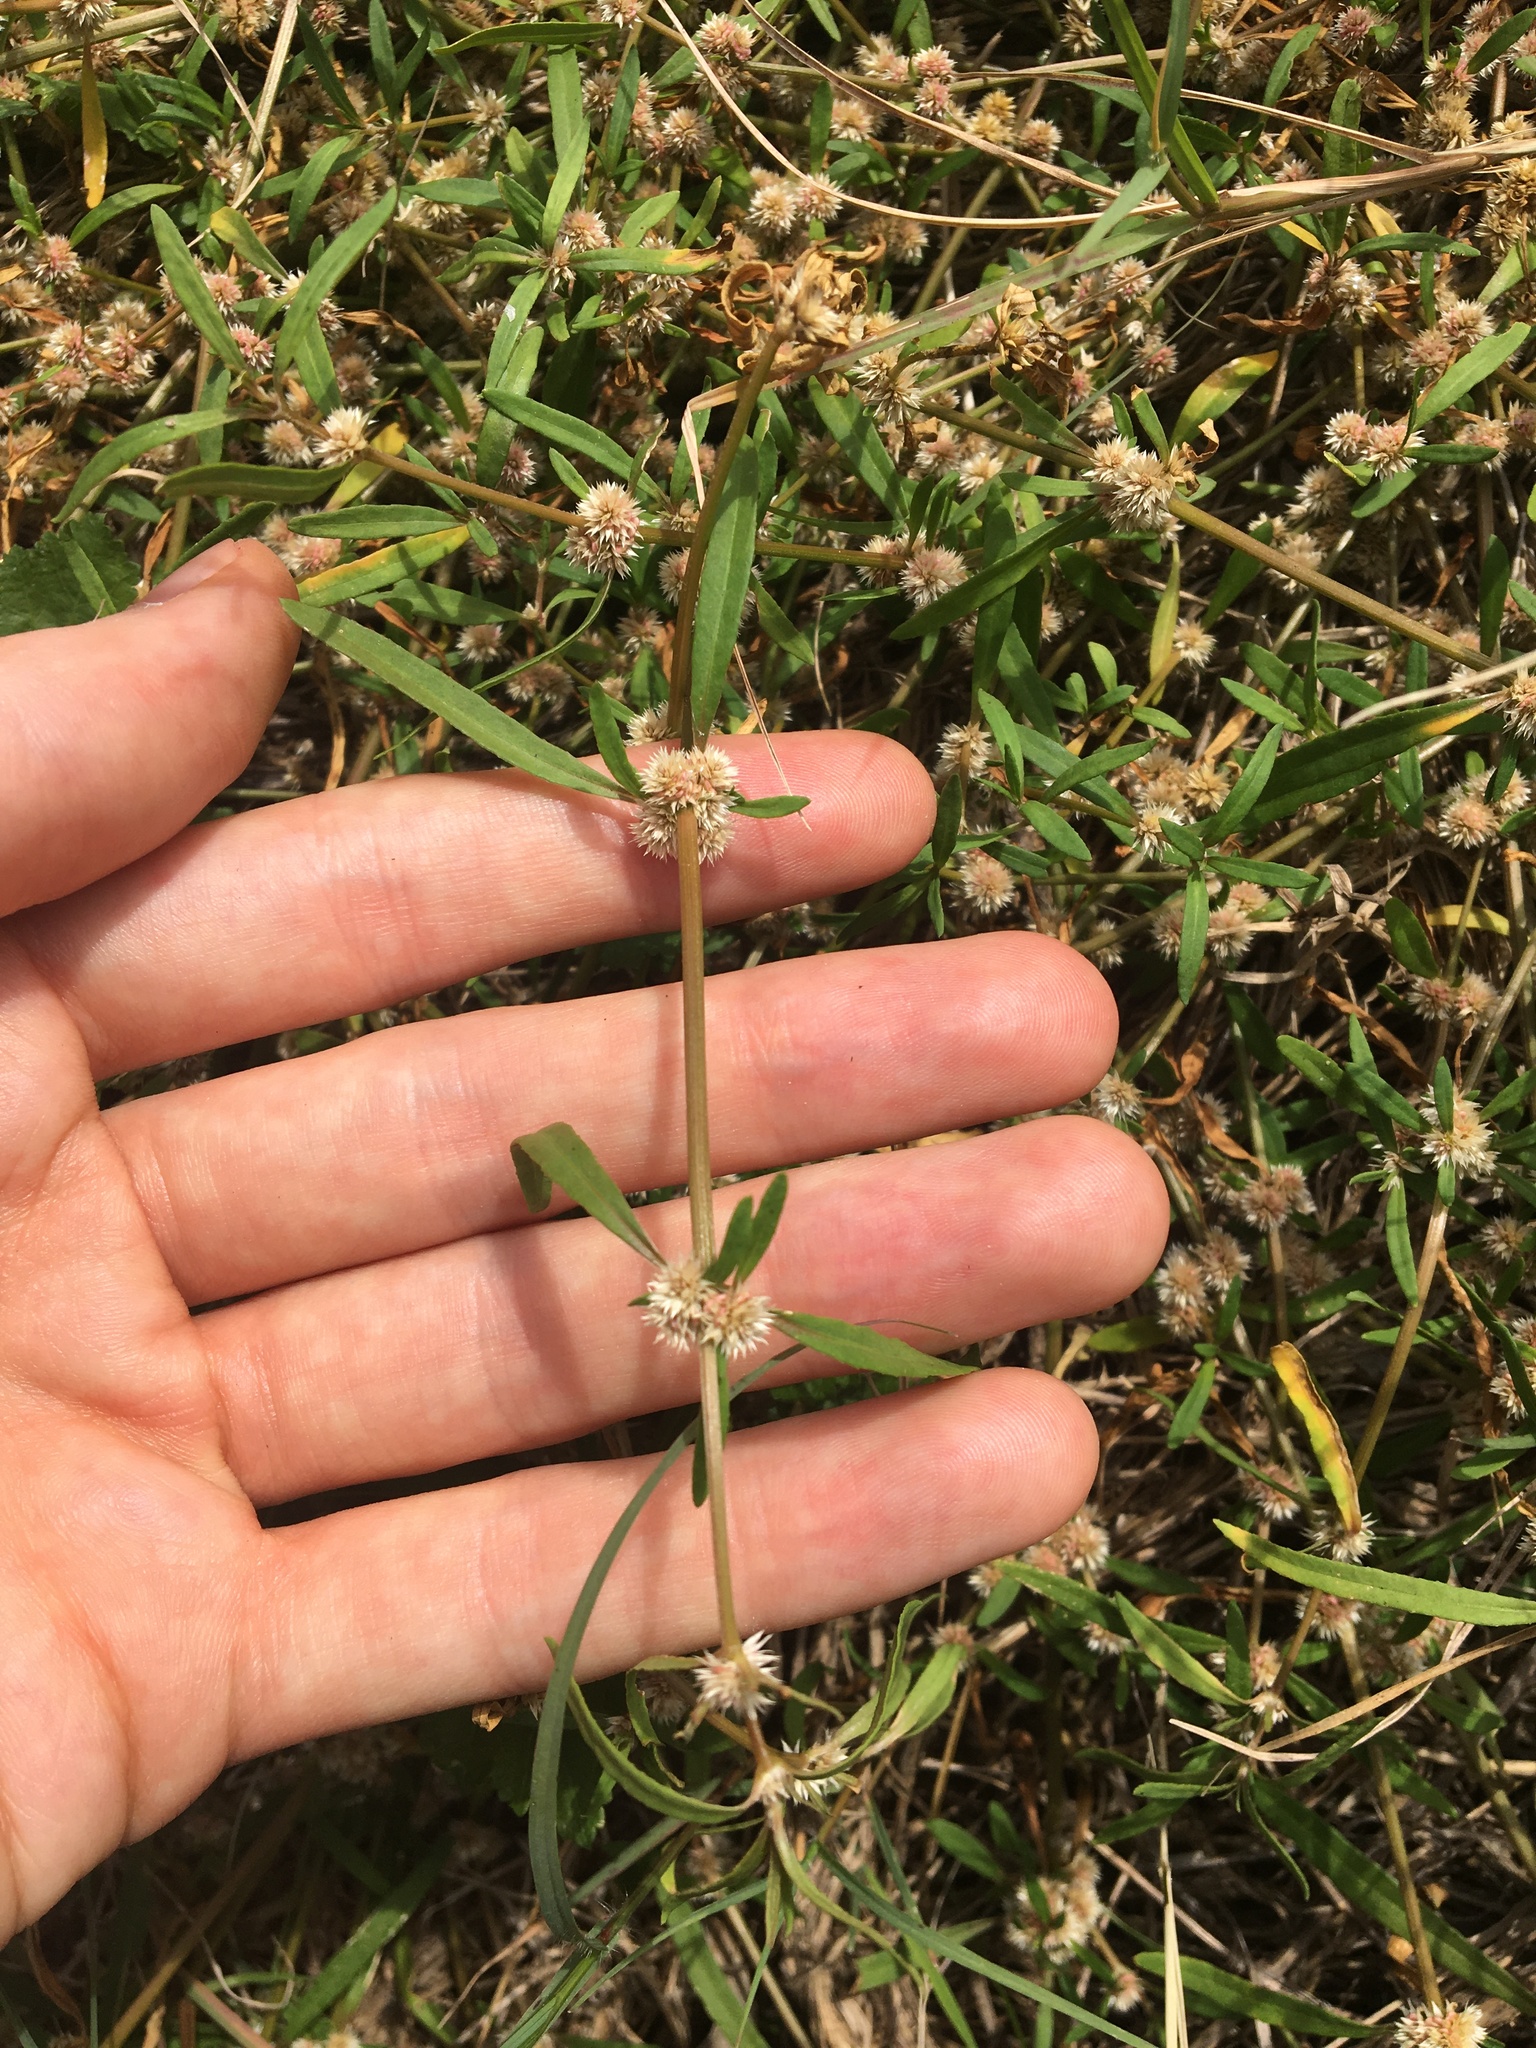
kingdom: Plantae
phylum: Tracheophyta
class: Magnoliopsida
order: Caryophyllales
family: Amaranthaceae
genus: Alternanthera
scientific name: Alternanthera denticulata
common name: Lesser joyweed
